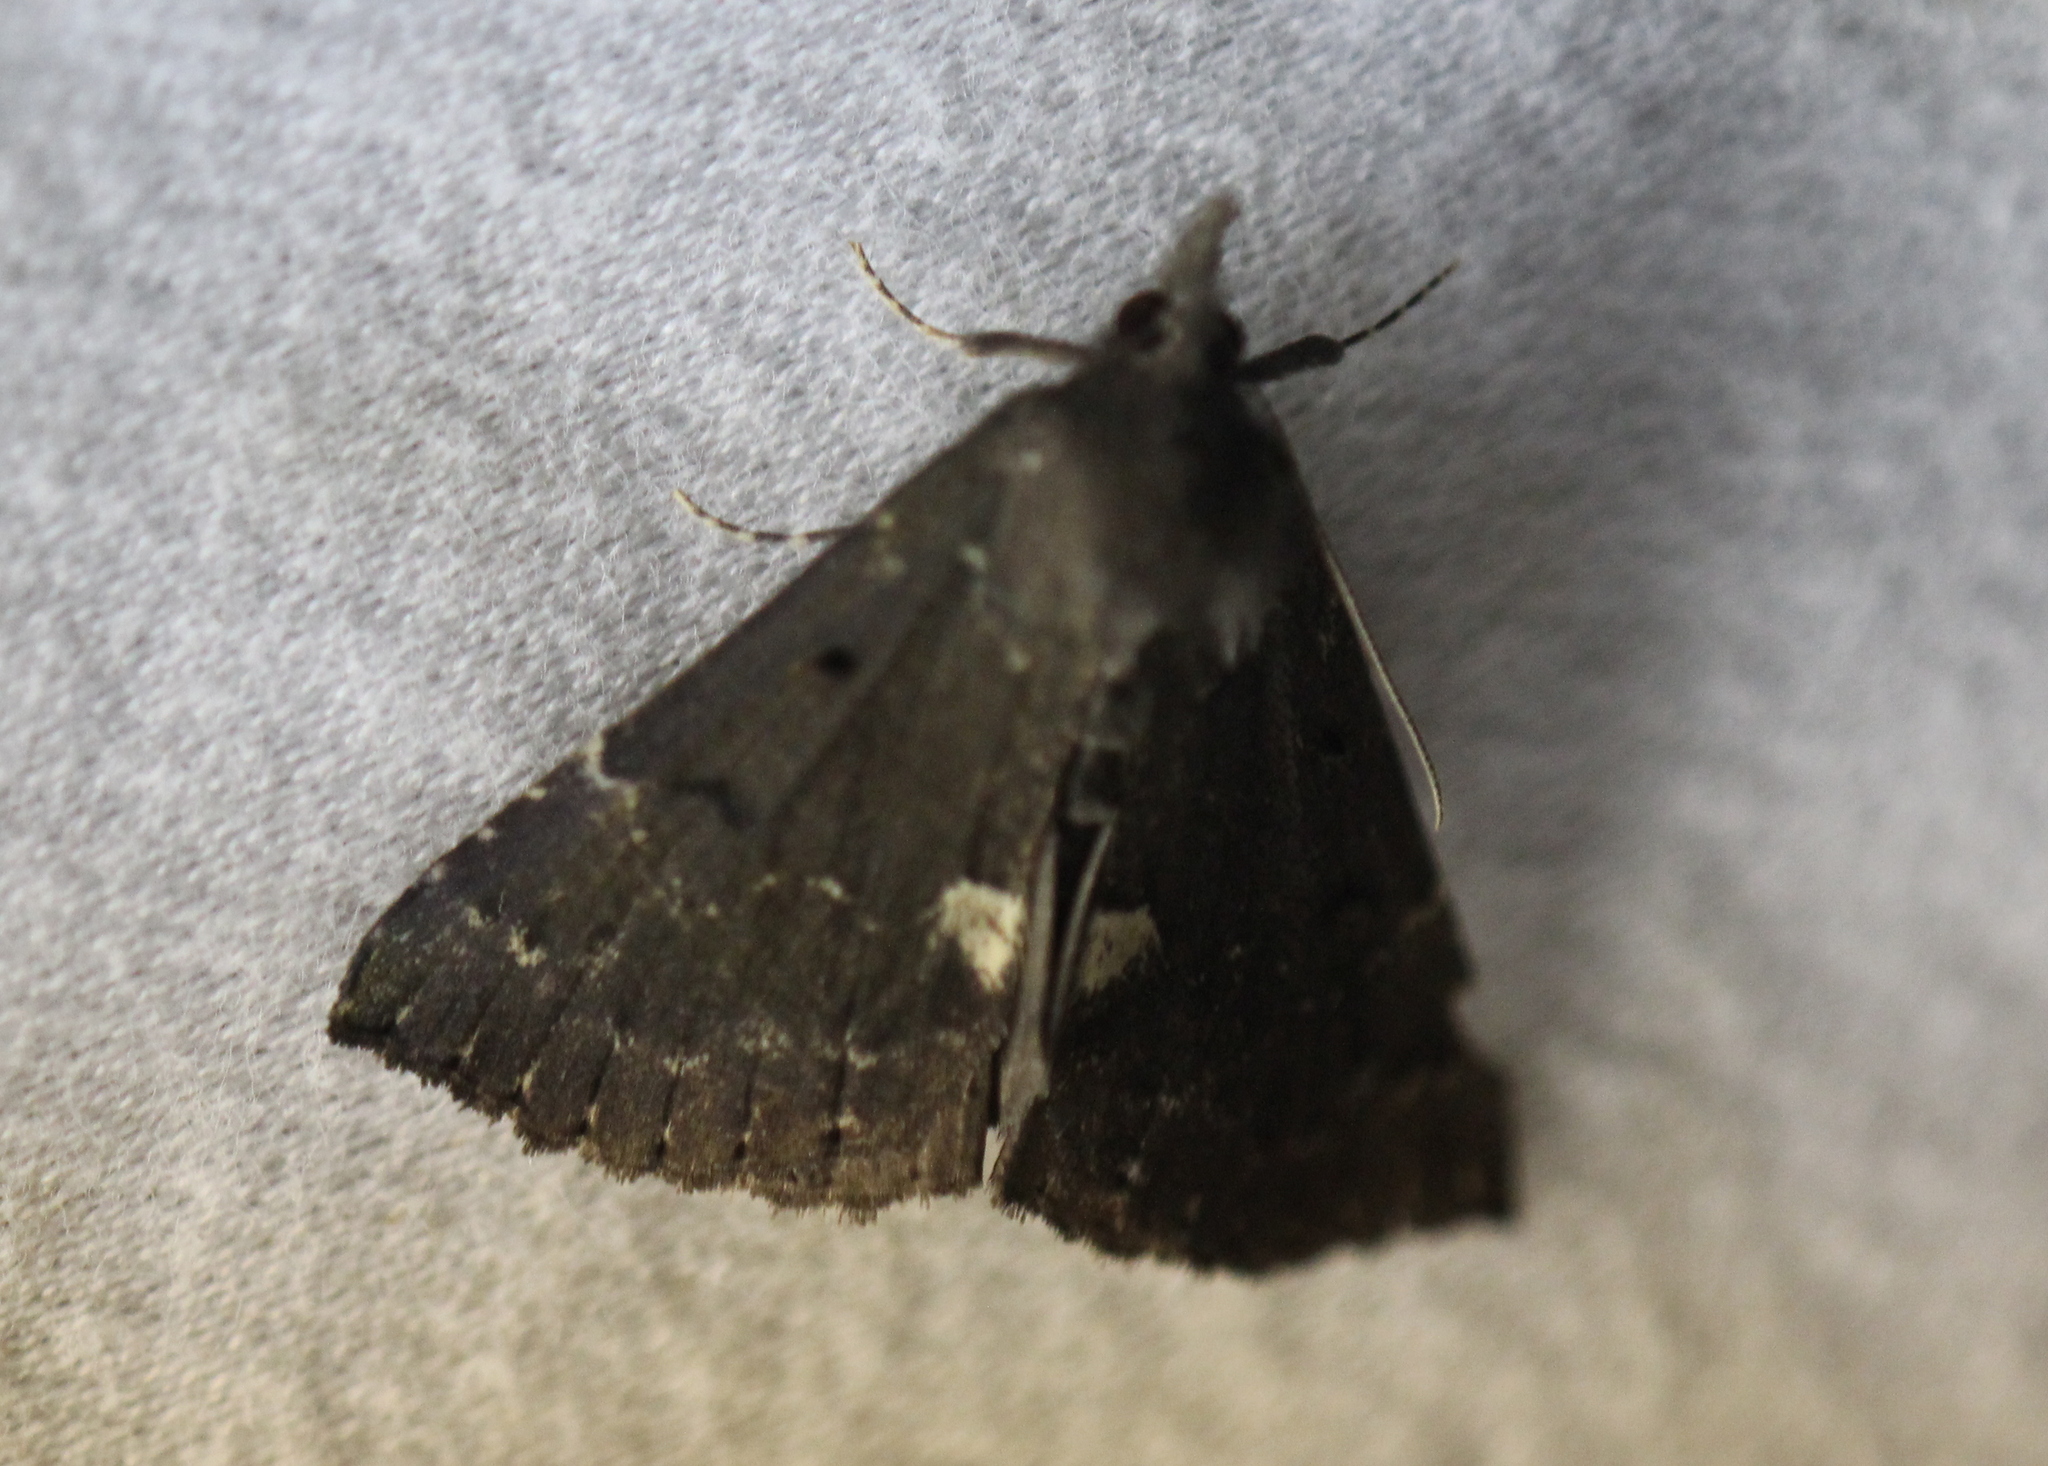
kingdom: Animalia
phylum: Arthropoda
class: Insecta
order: Lepidoptera
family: Erebidae
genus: Hypena
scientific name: Hypena bijugalis
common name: Dimorphic bomolocha moth
